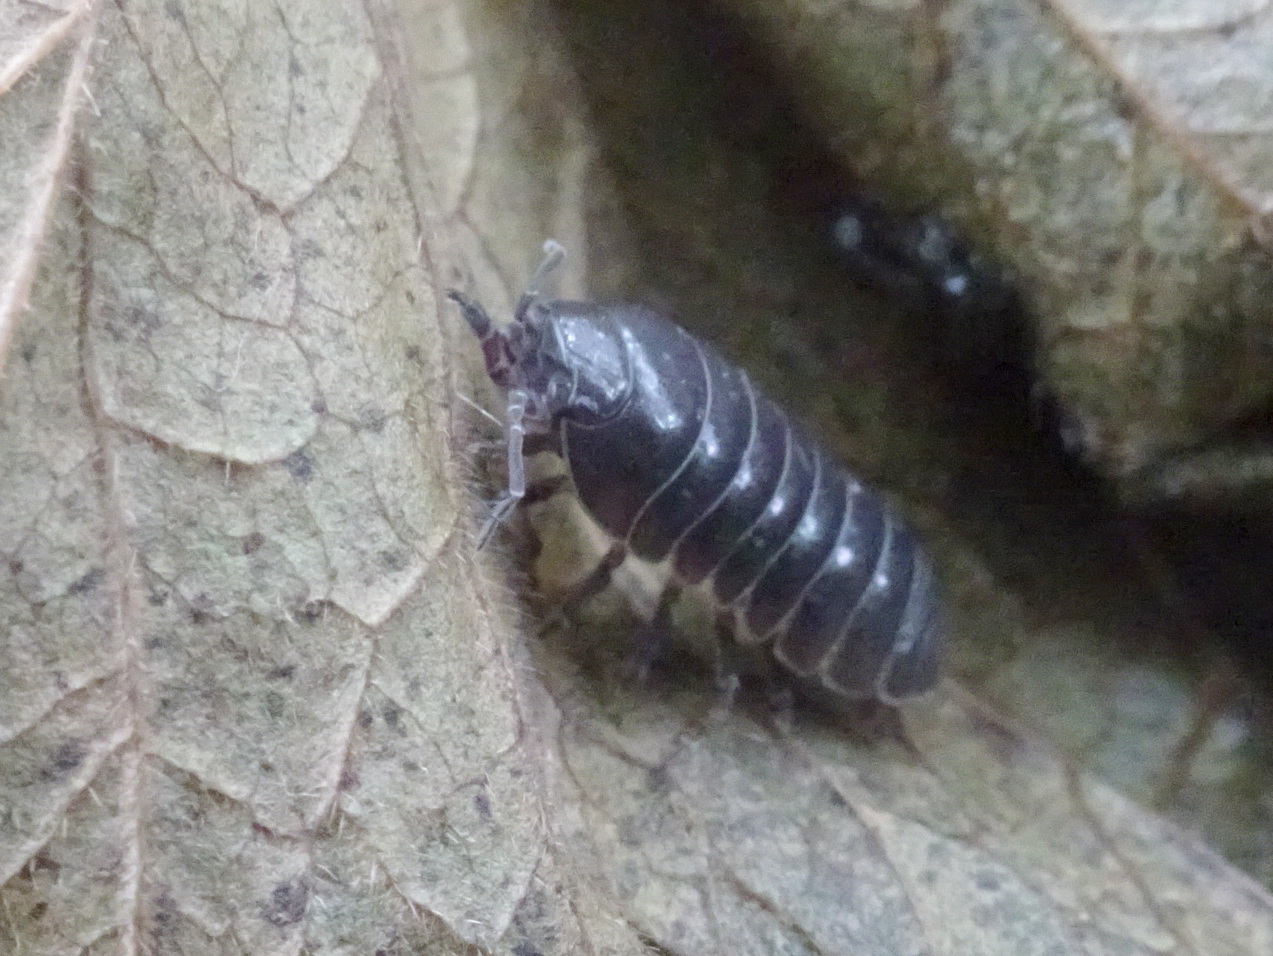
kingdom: Animalia
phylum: Arthropoda
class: Malacostraca
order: Isopoda
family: Armadillidiidae
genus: Armadillidium
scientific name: Armadillidium vulgare
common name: Common pill woodlouse
